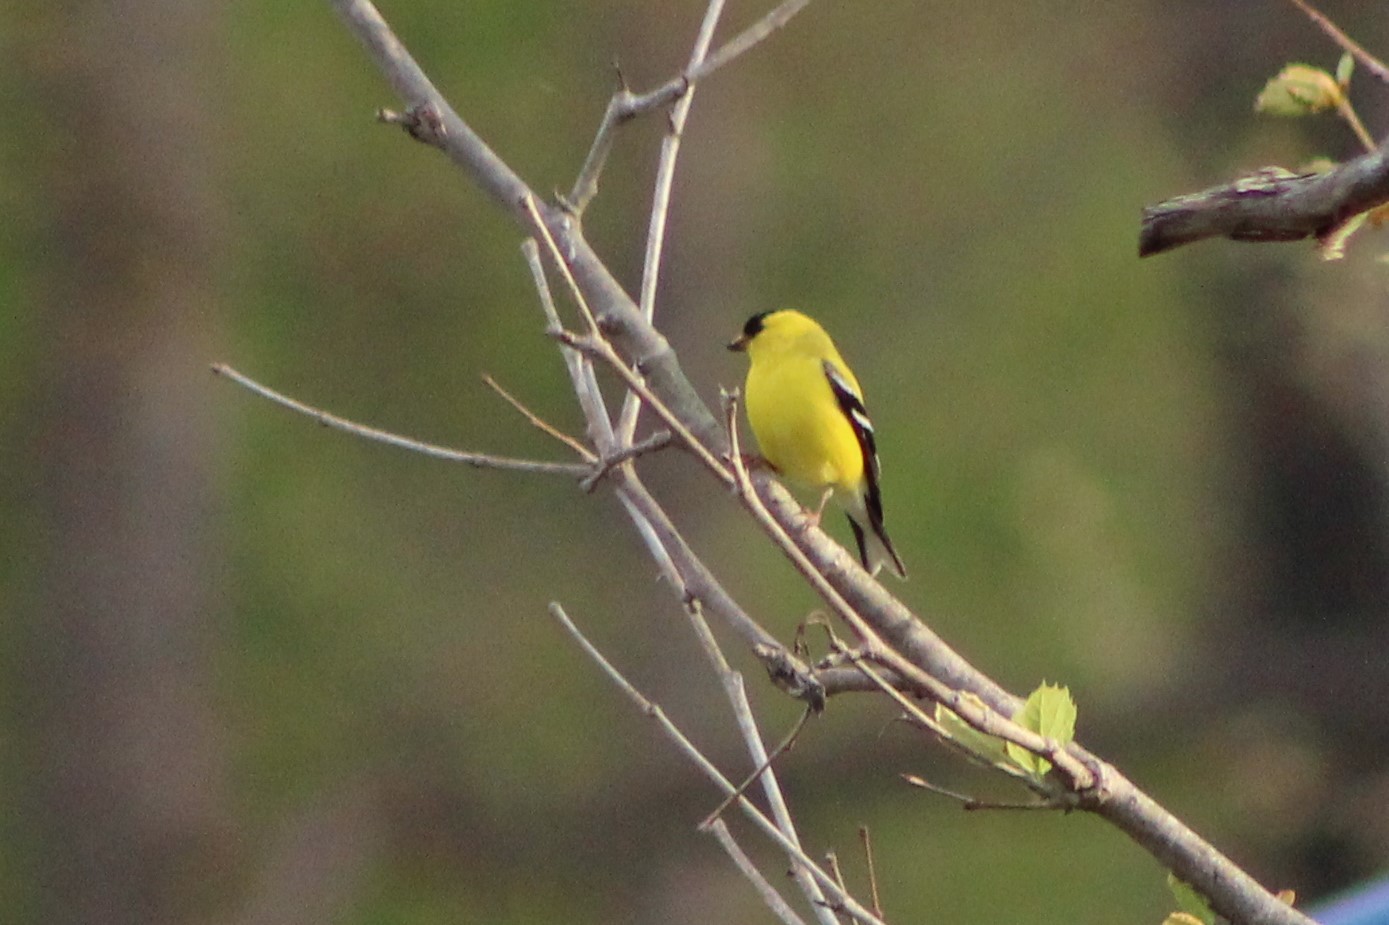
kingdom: Animalia
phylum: Chordata
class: Aves
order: Passeriformes
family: Fringillidae
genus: Spinus
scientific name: Spinus tristis
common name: American goldfinch
